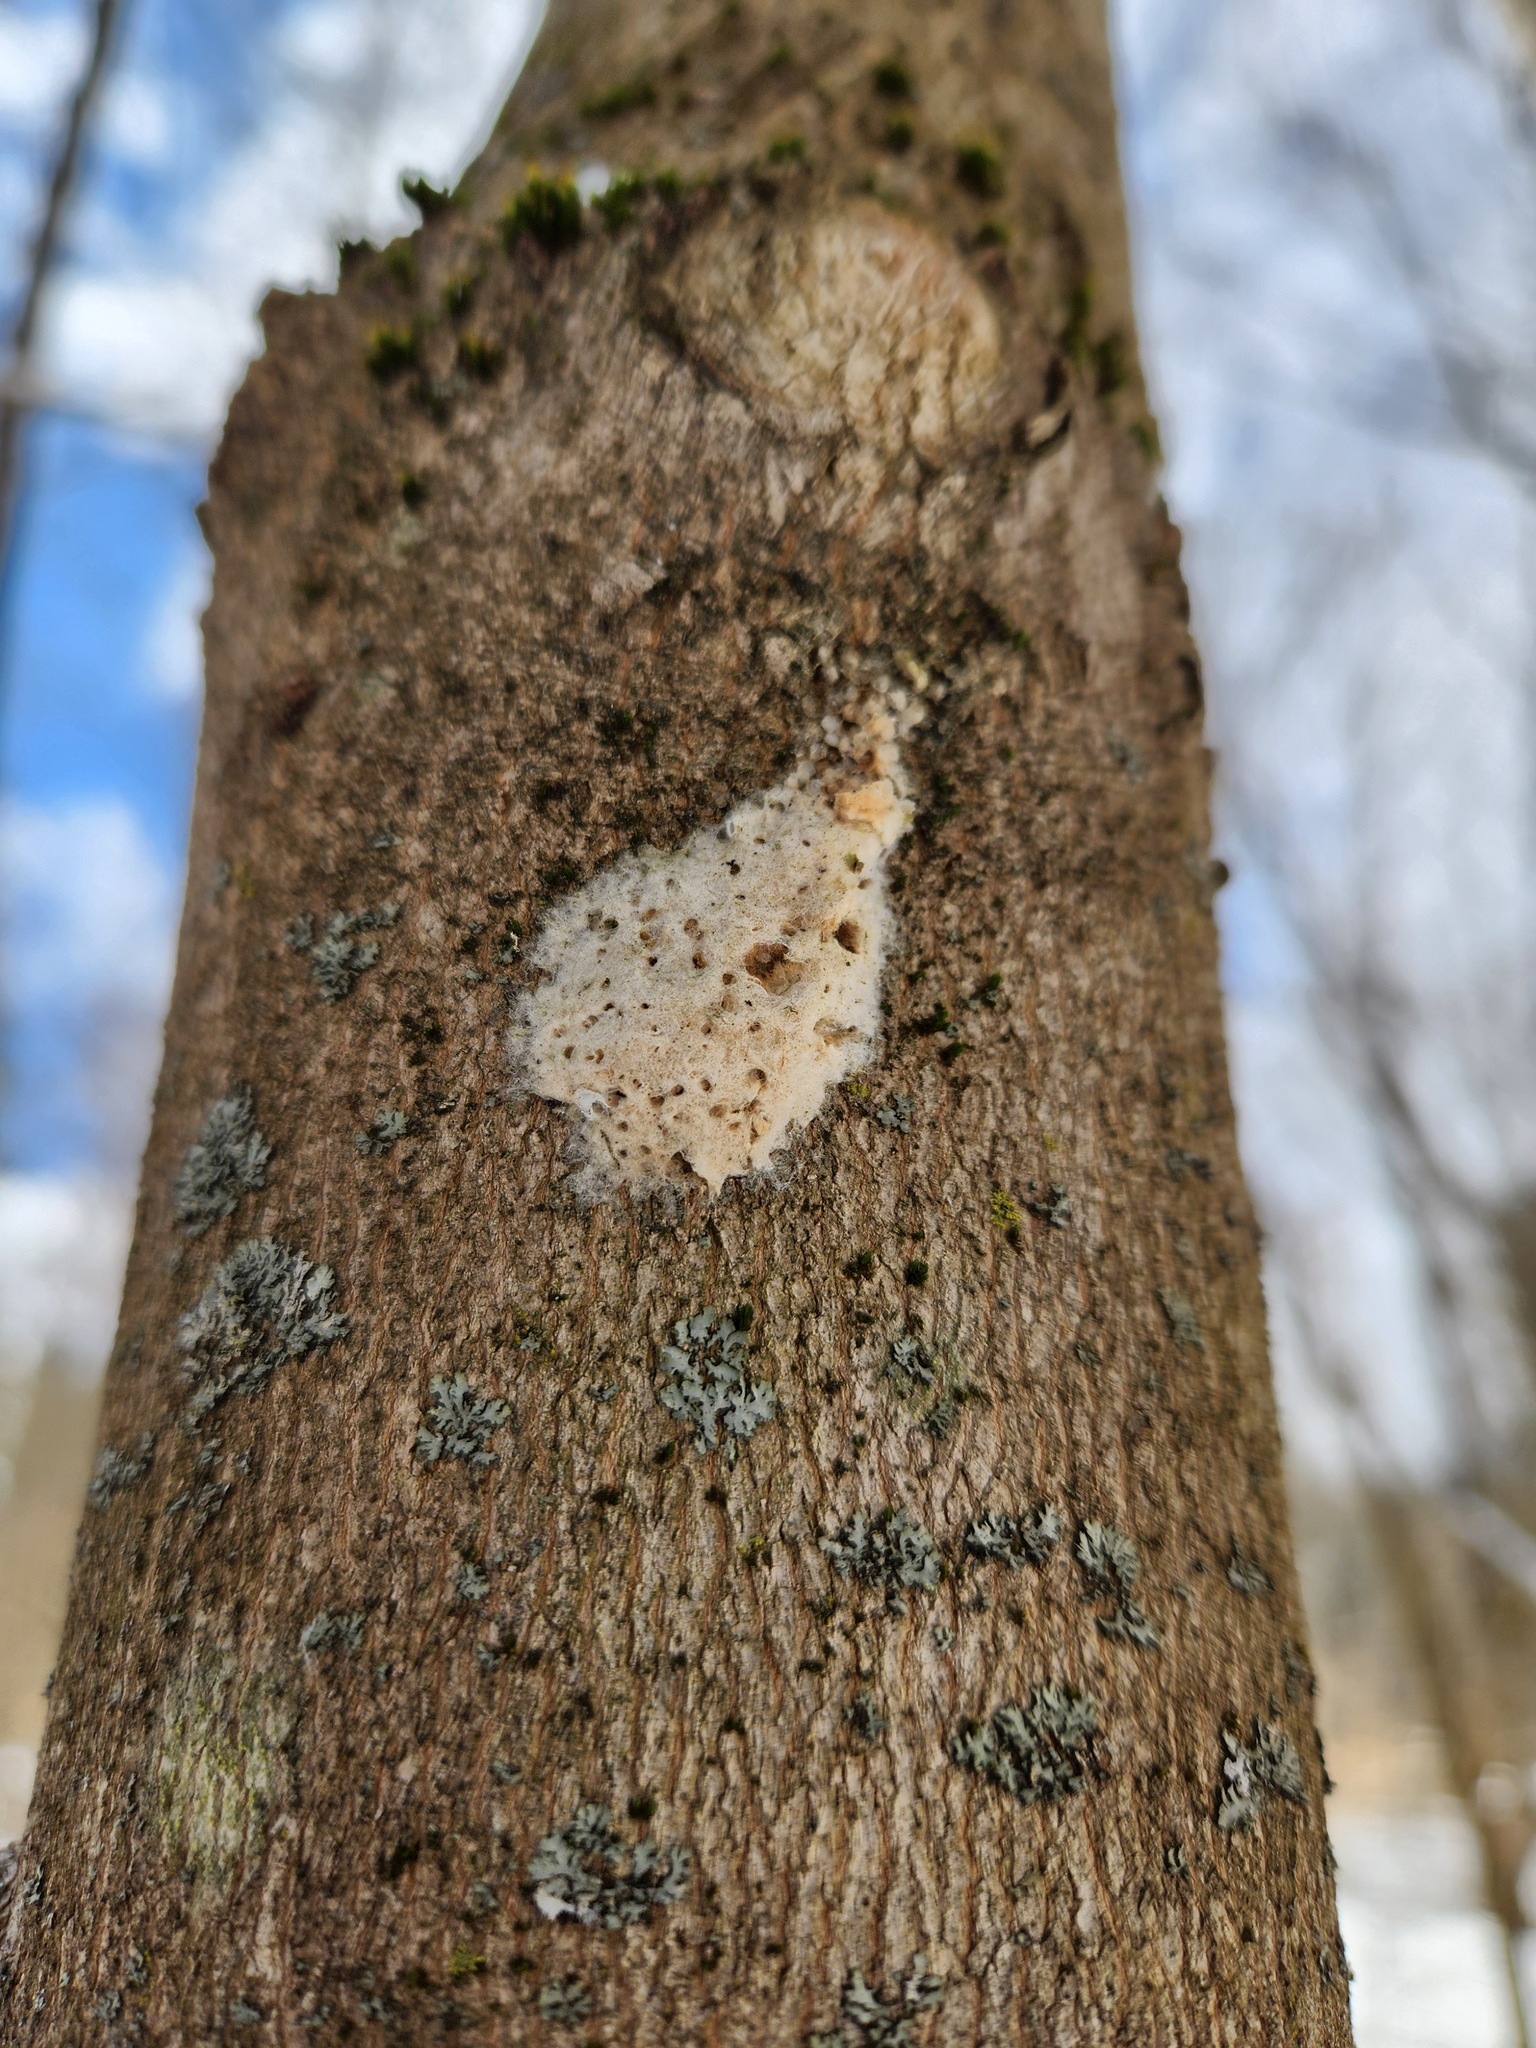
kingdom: Animalia
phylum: Arthropoda
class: Insecta
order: Lepidoptera
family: Erebidae
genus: Lymantria
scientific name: Lymantria dispar
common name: Gypsy moth
